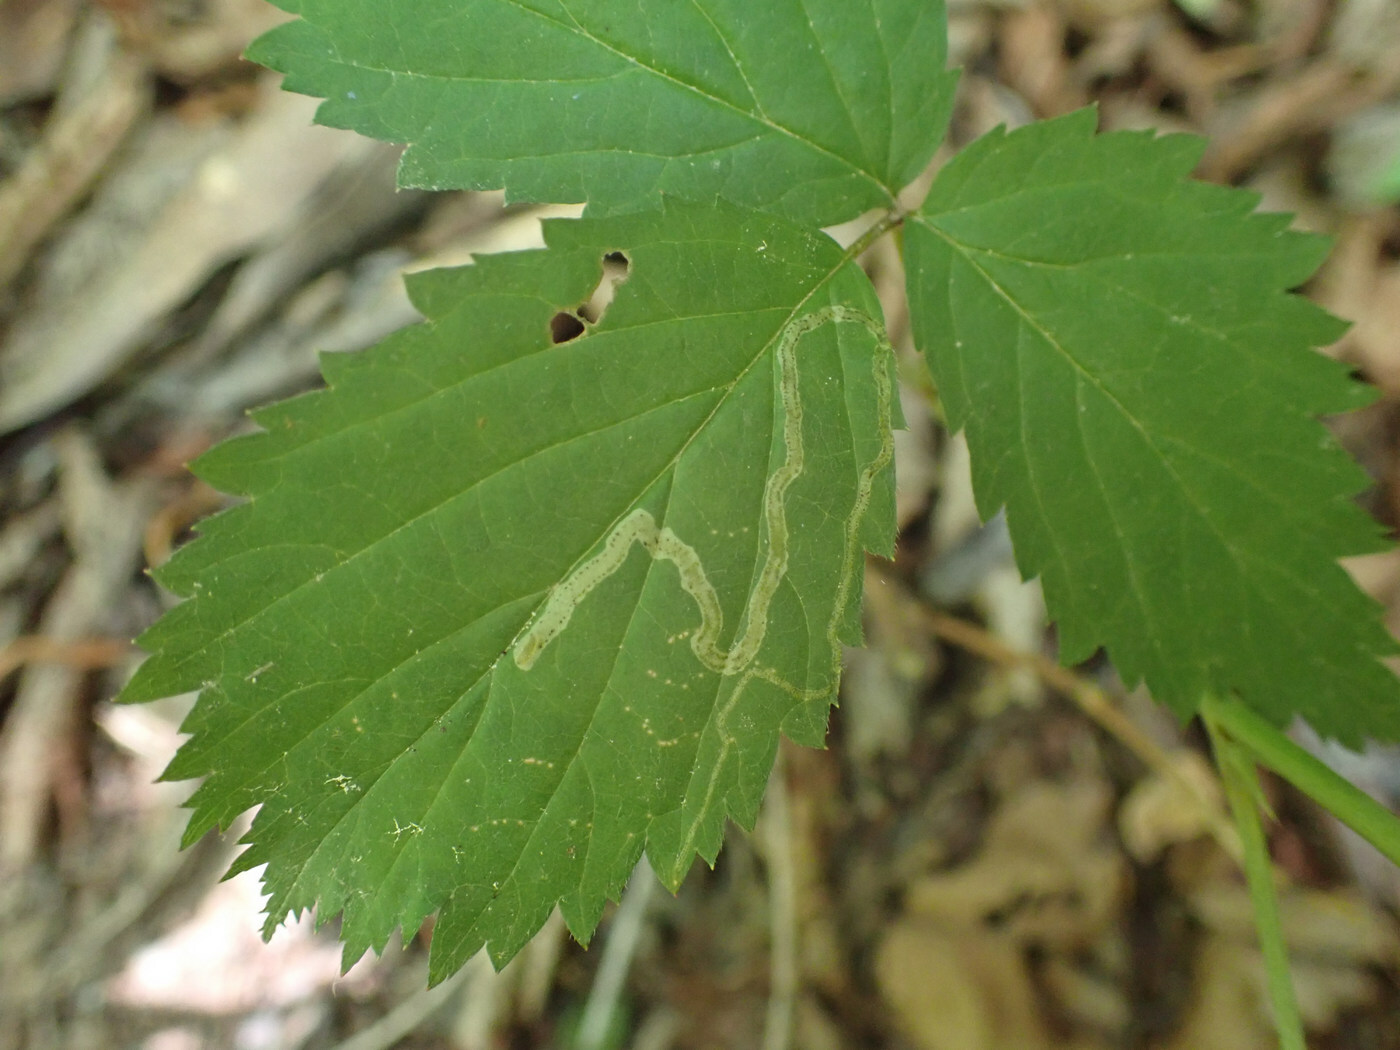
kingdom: Animalia
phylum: Arthropoda
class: Insecta
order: Diptera
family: Agromyzidae
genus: Agromyza
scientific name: Agromyza vockerothi
